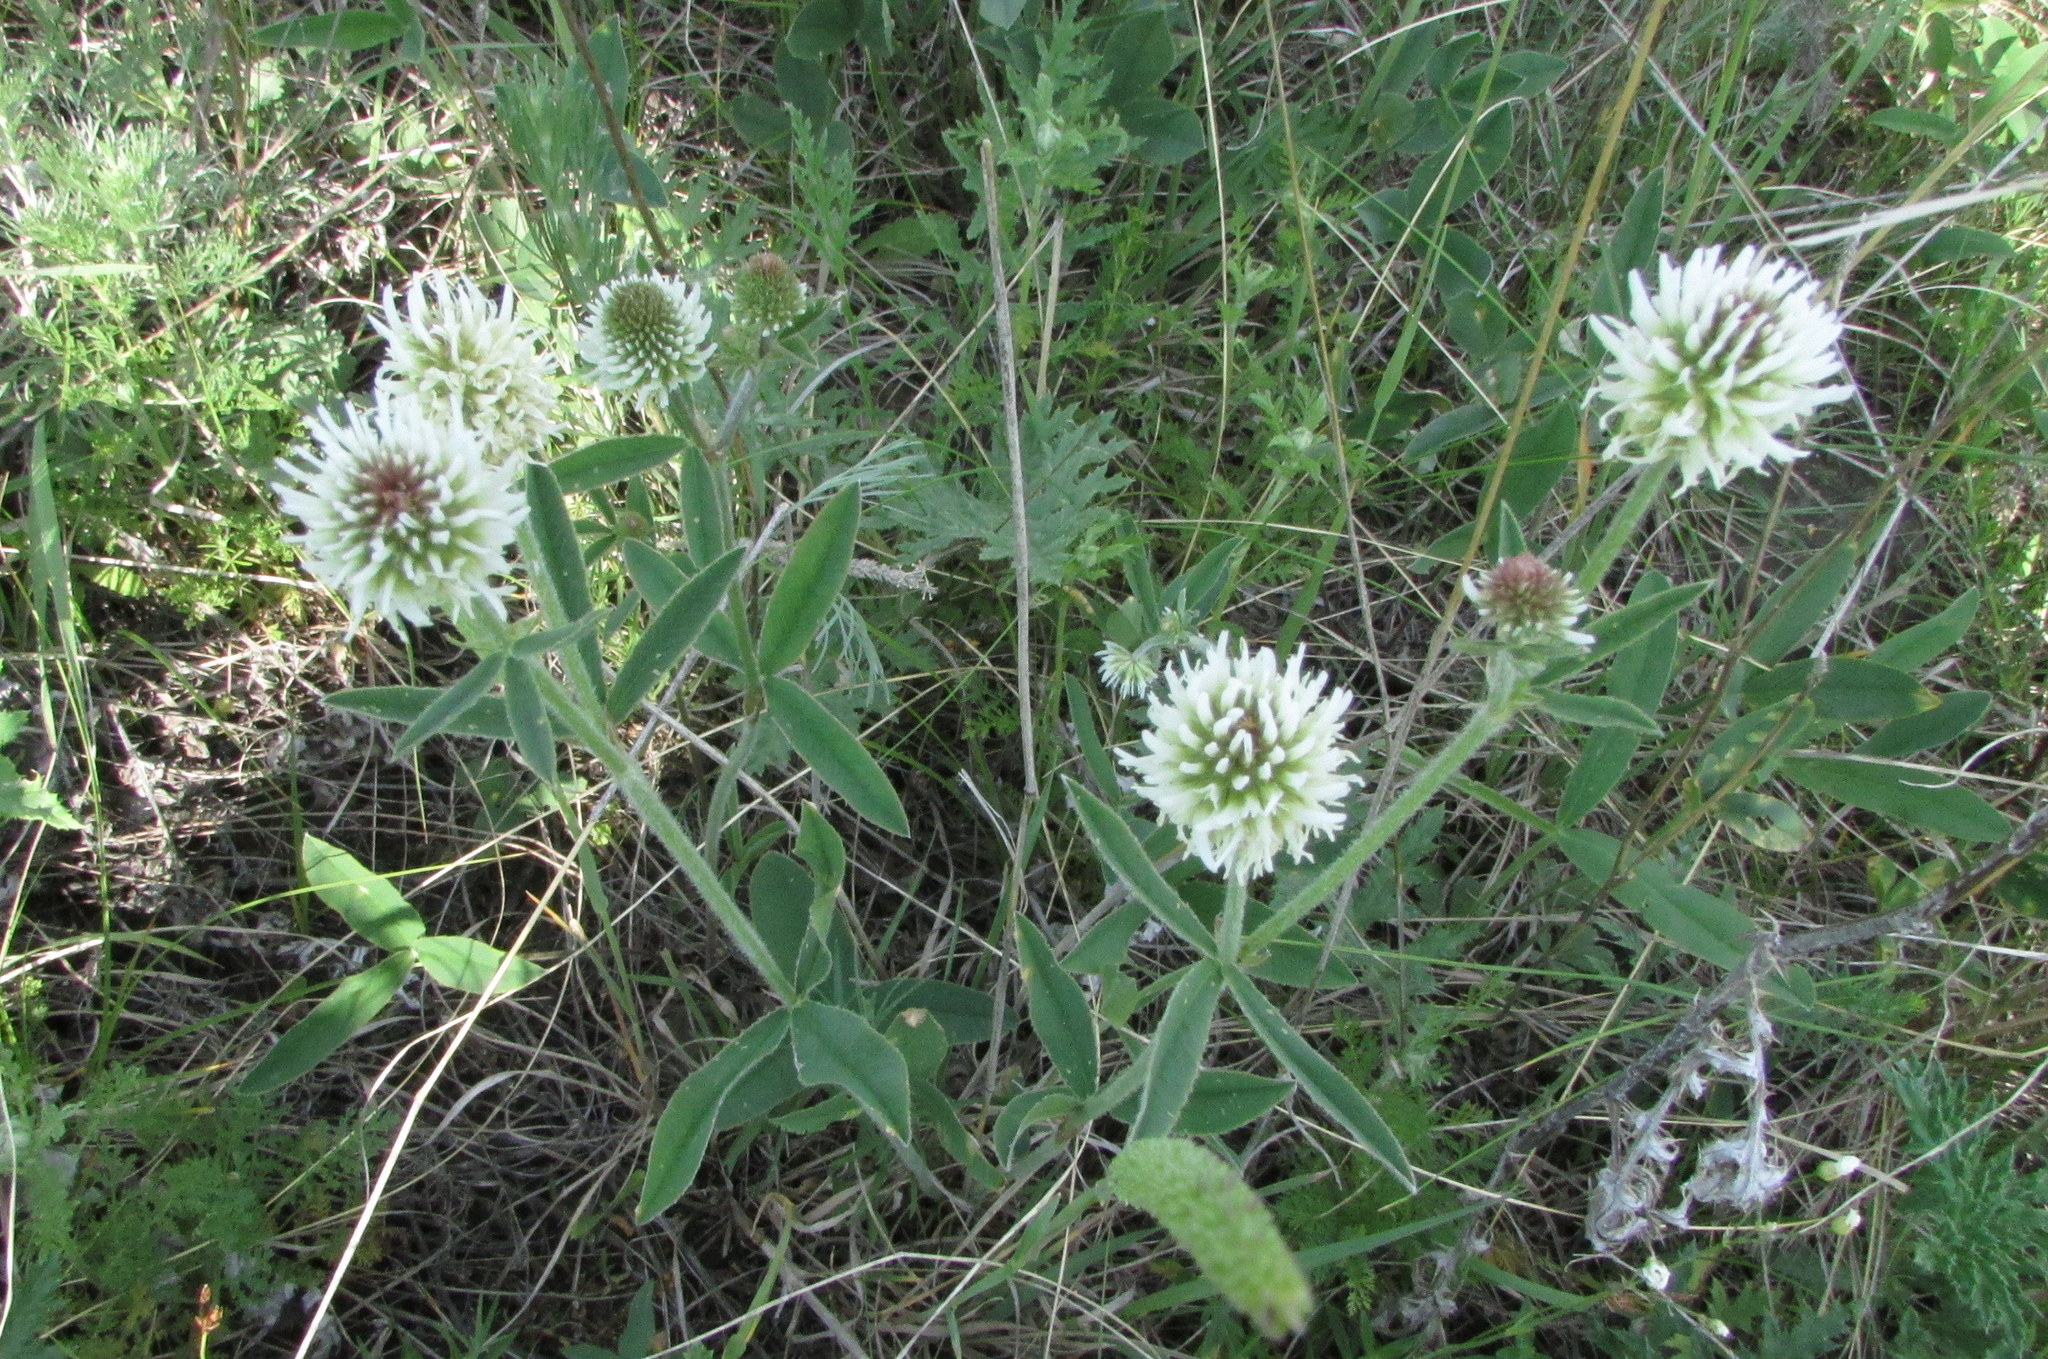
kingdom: Plantae
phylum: Tracheophyta
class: Magnoliopsida
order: Fabales
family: Fabaceae
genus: Trifolium
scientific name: Trifolium montanum
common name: Mountain clover
